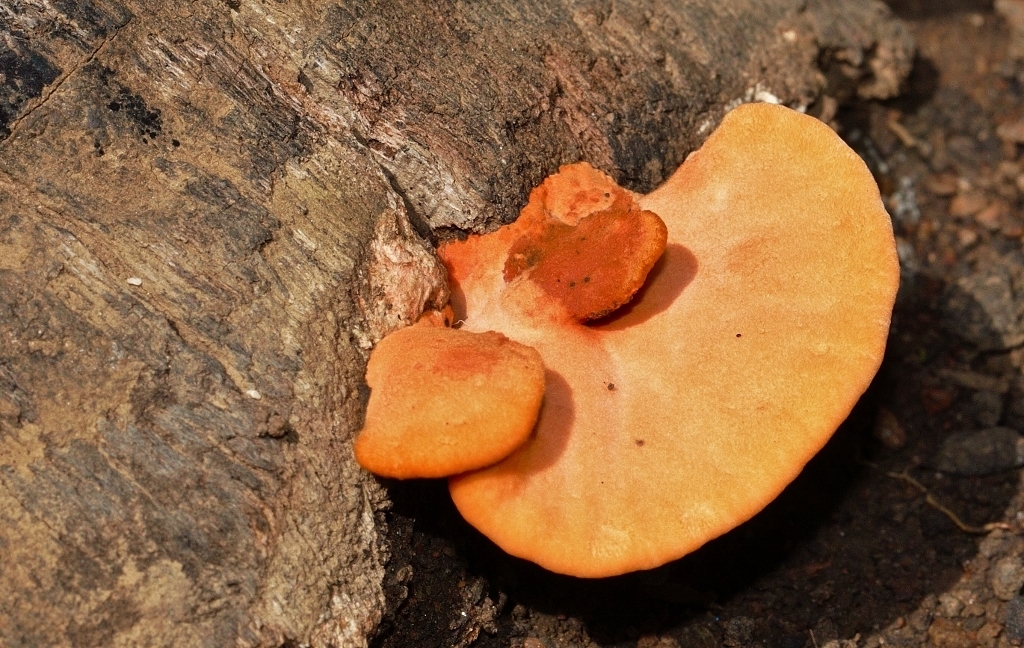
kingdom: Fungi
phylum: Basidiomycota
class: Agaricomycetes
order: Polyporales
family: Polyporaceae
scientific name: Polyporaceae
